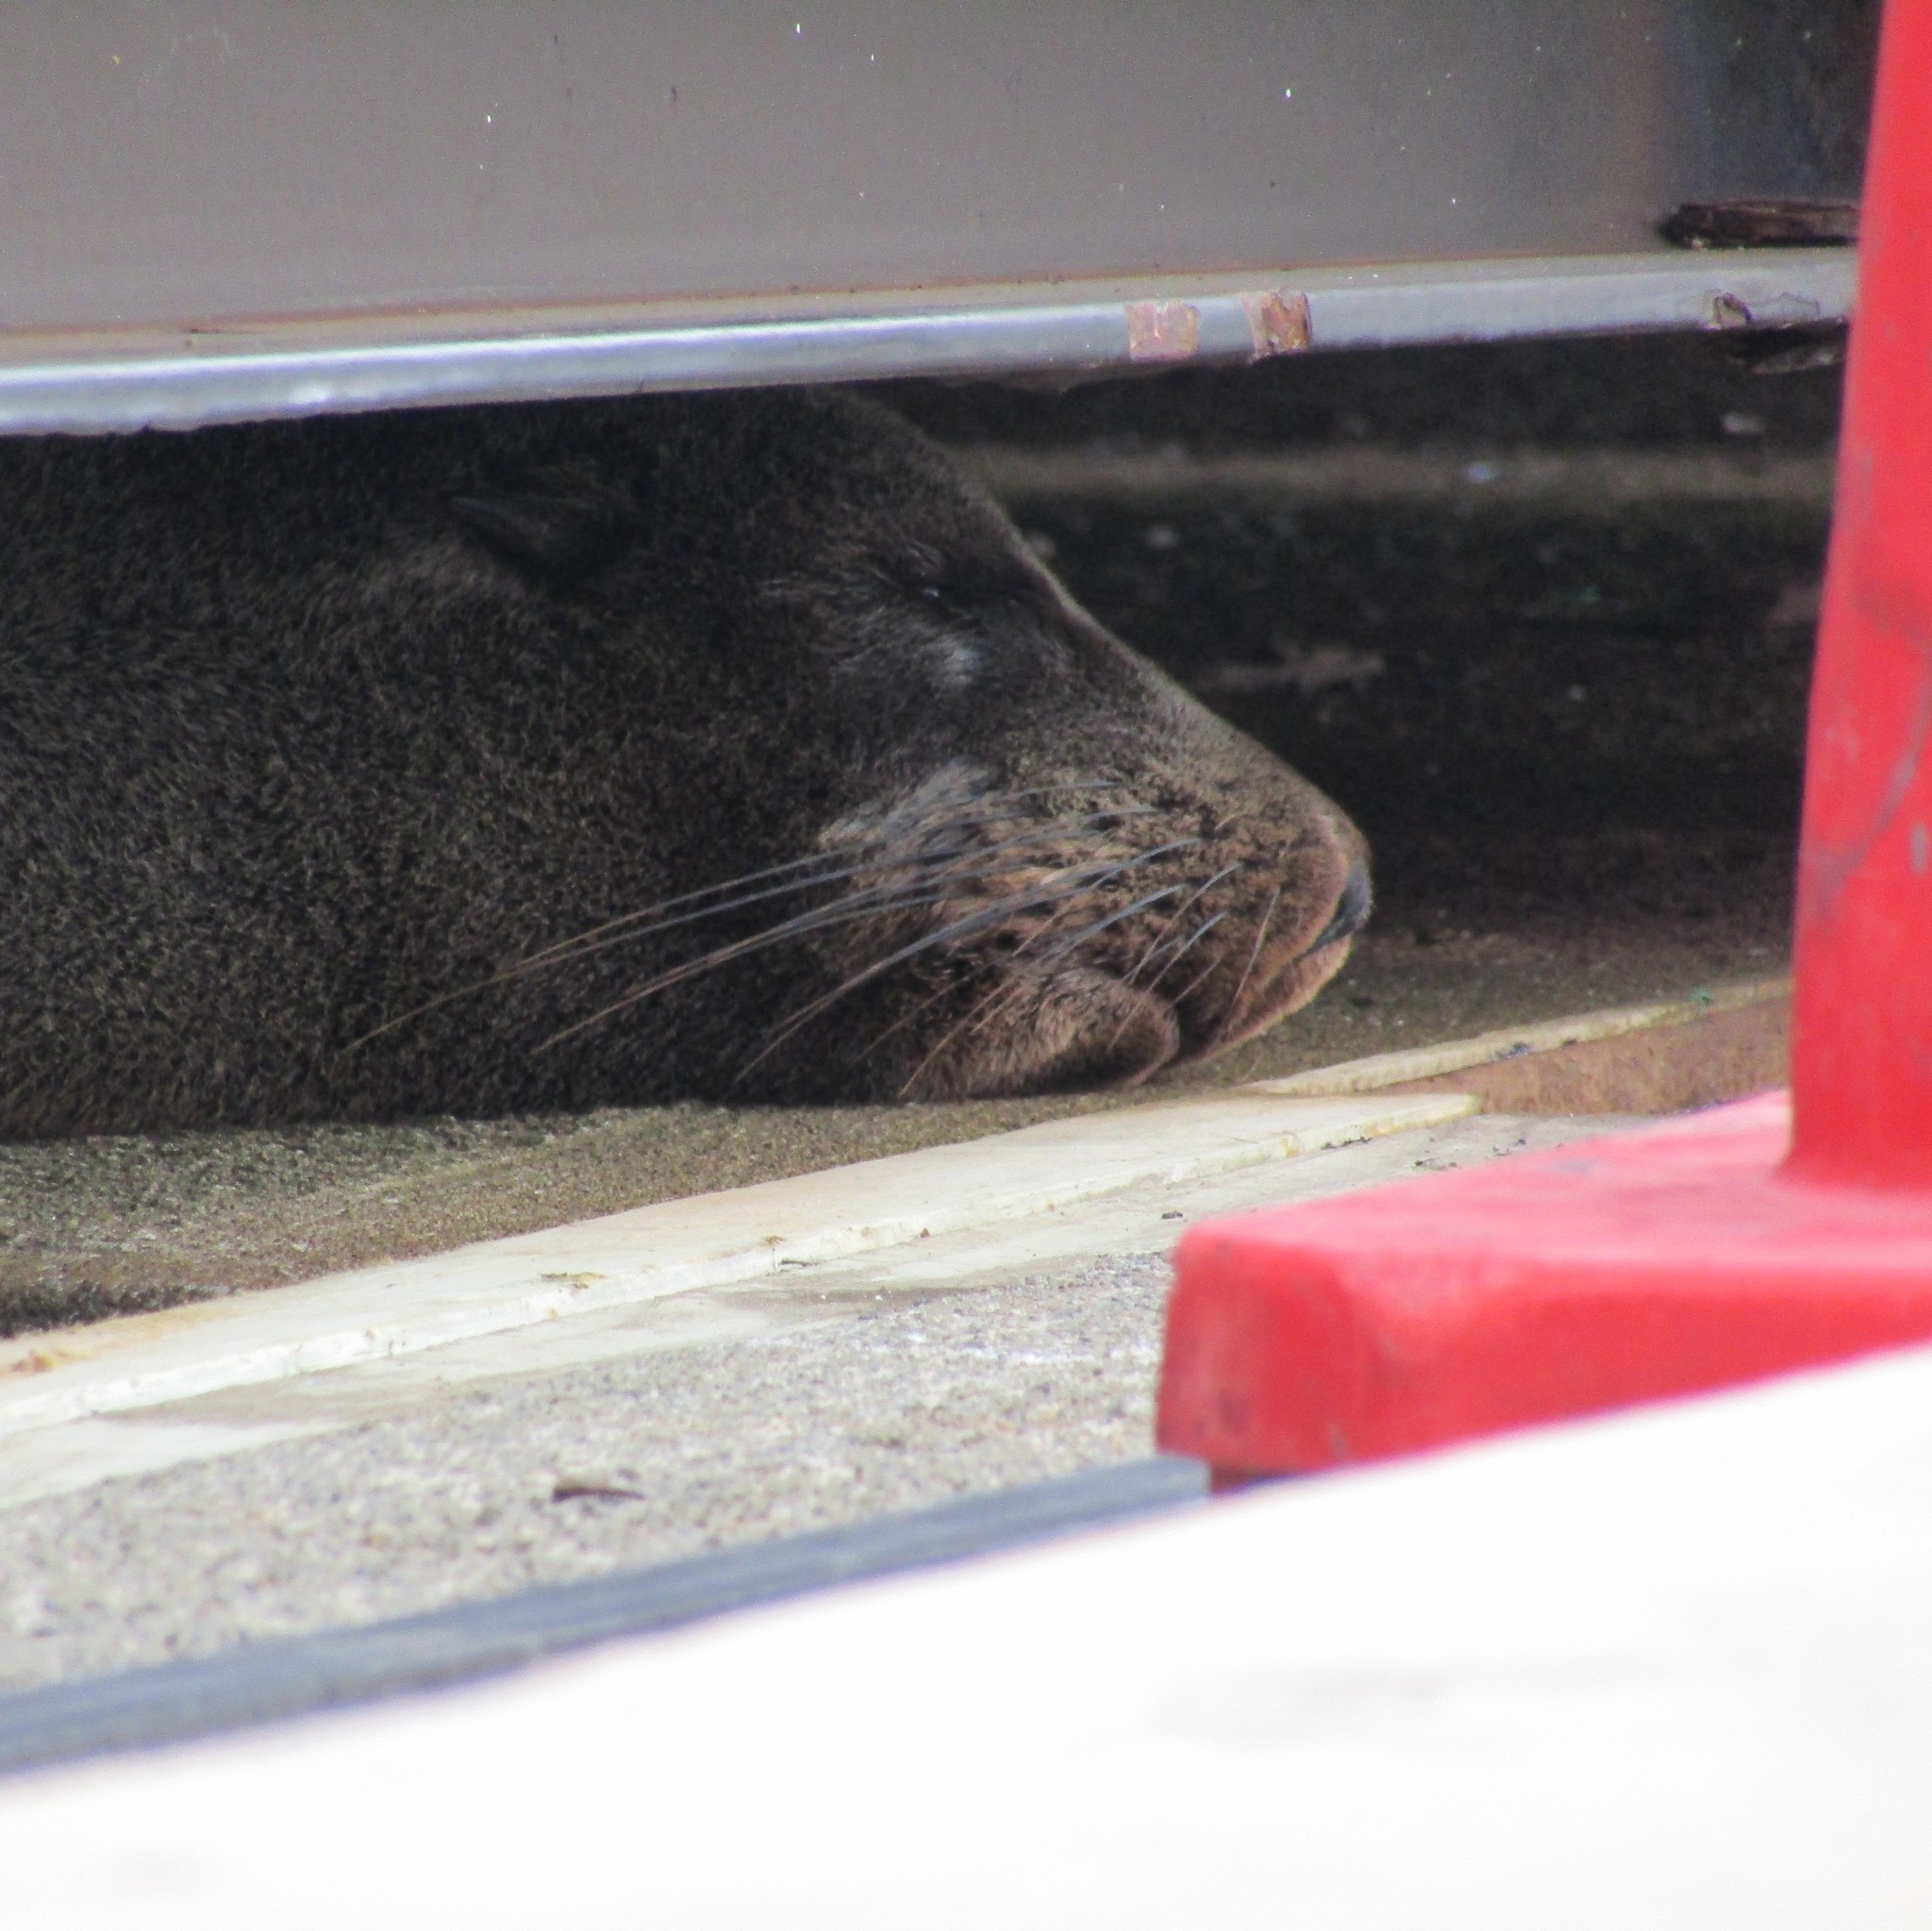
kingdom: Animalia
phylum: Chordata
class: Mammalia
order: Carnivora
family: Otariidae
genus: Arctocephalus
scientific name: Arctocephalus forsteri
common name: New zealand fur seal
